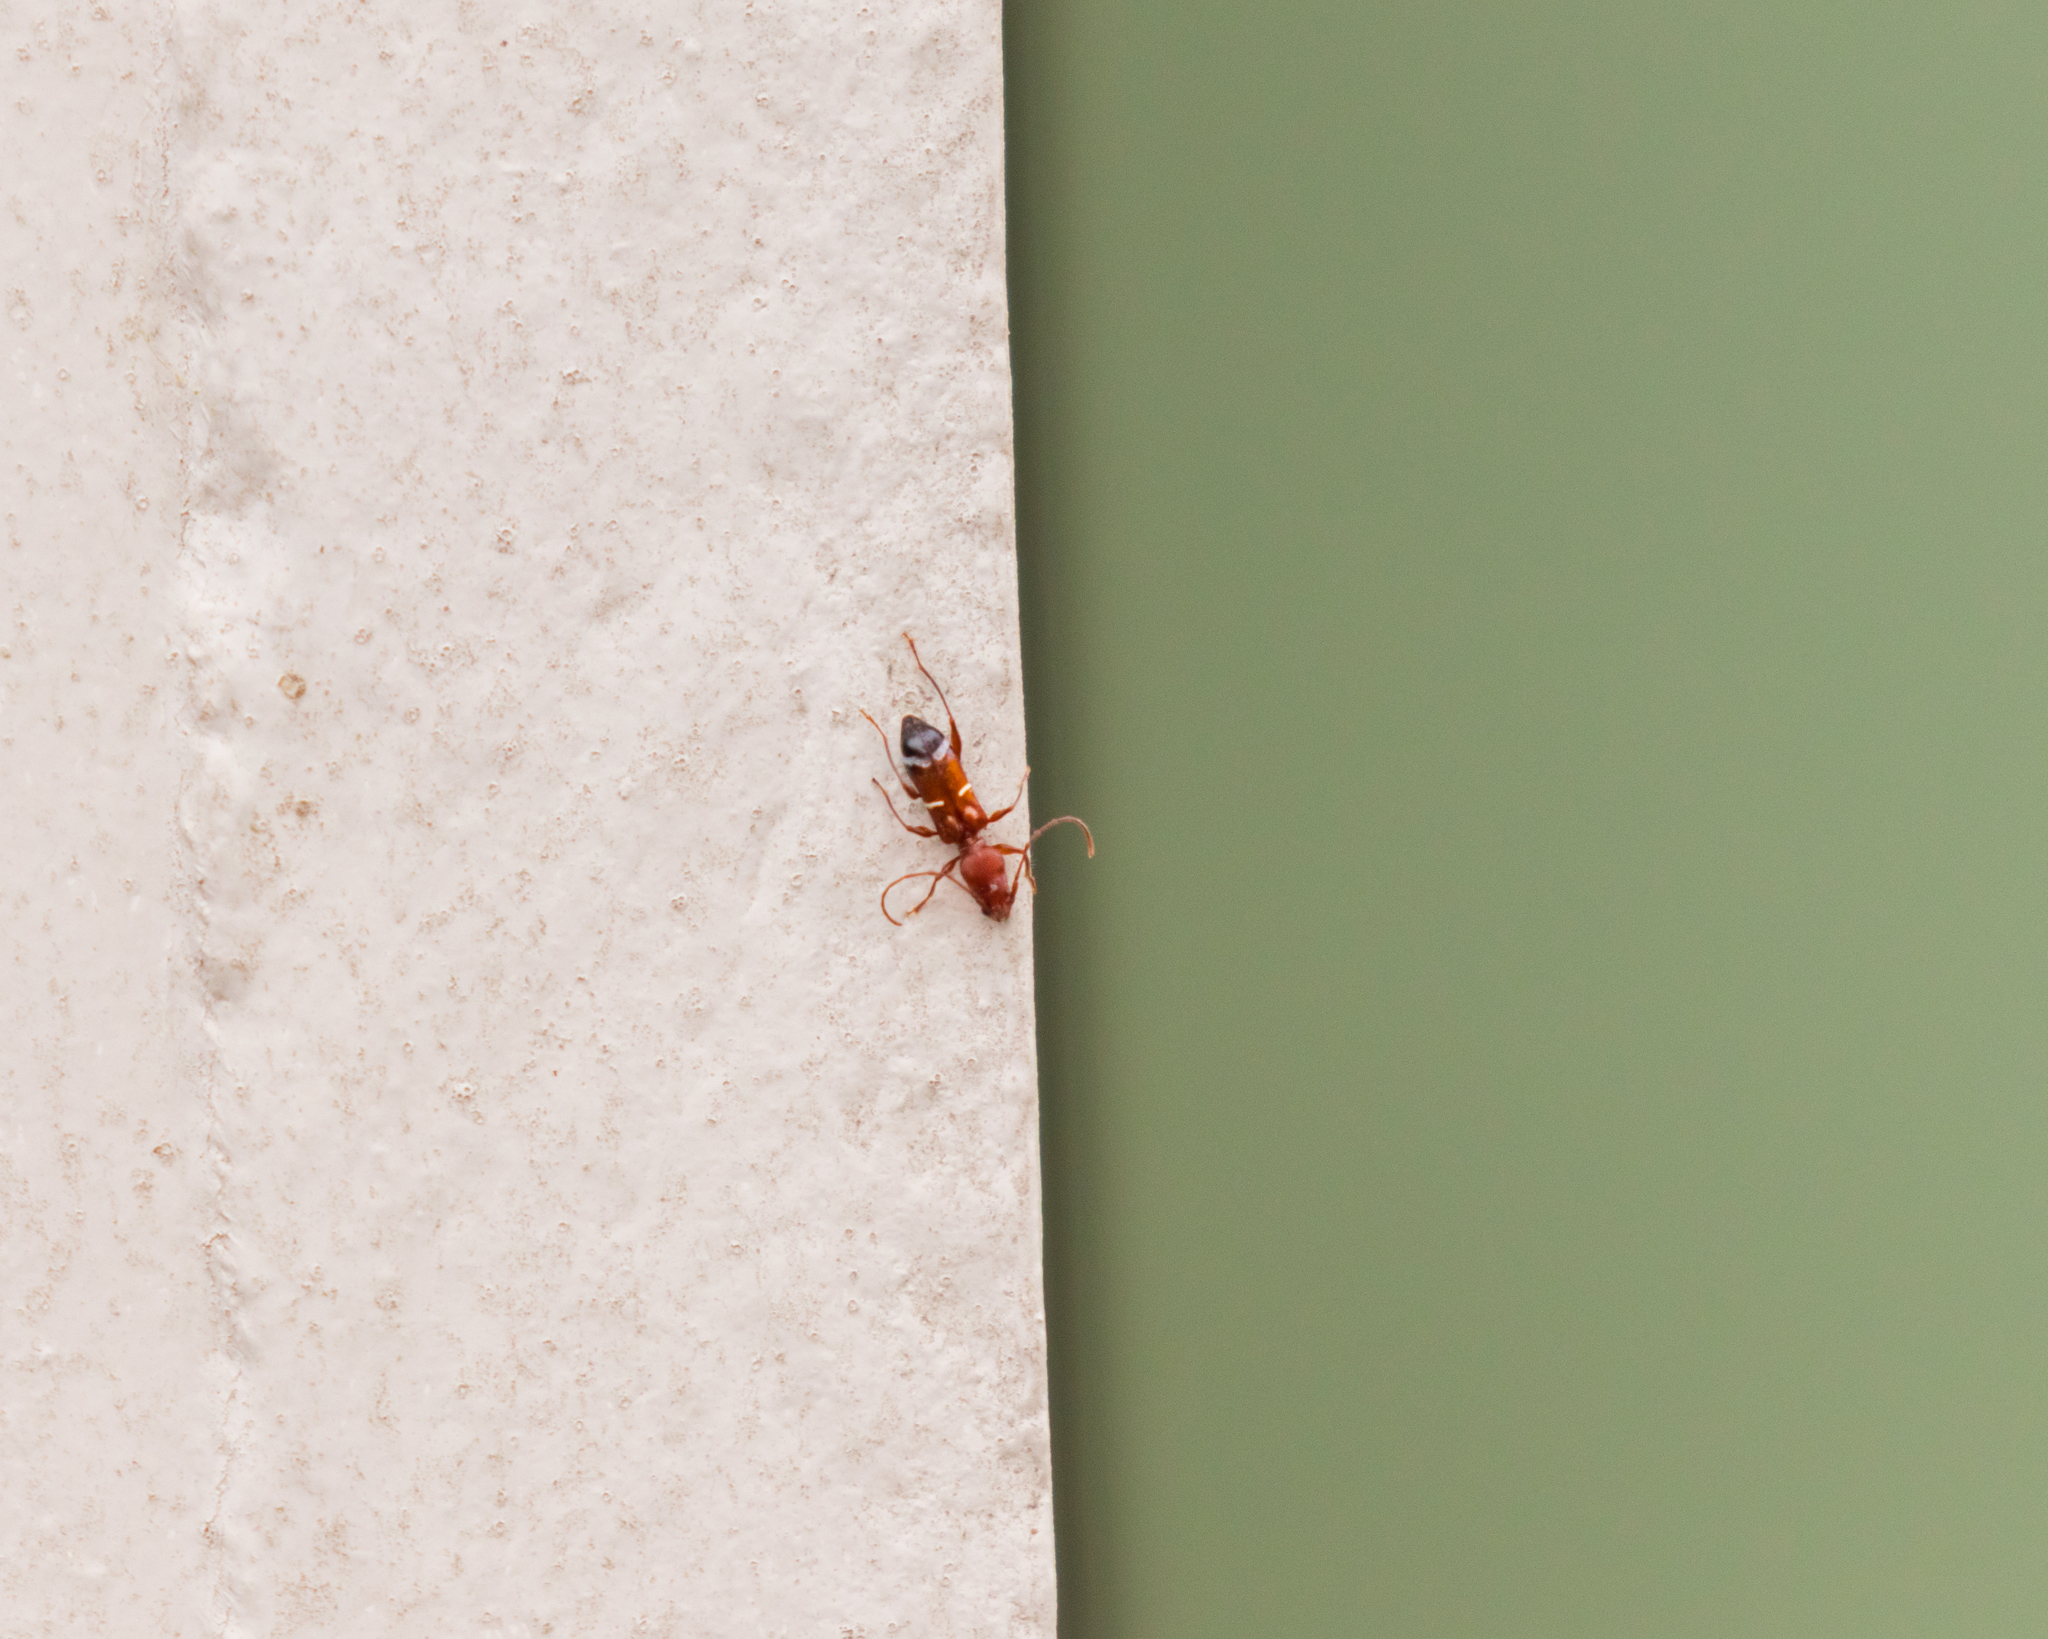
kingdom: Animalia
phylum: Arthropoda
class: Insecta
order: Coleoptera
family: Cerambycidae
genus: Euderces
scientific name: Euderces pini
